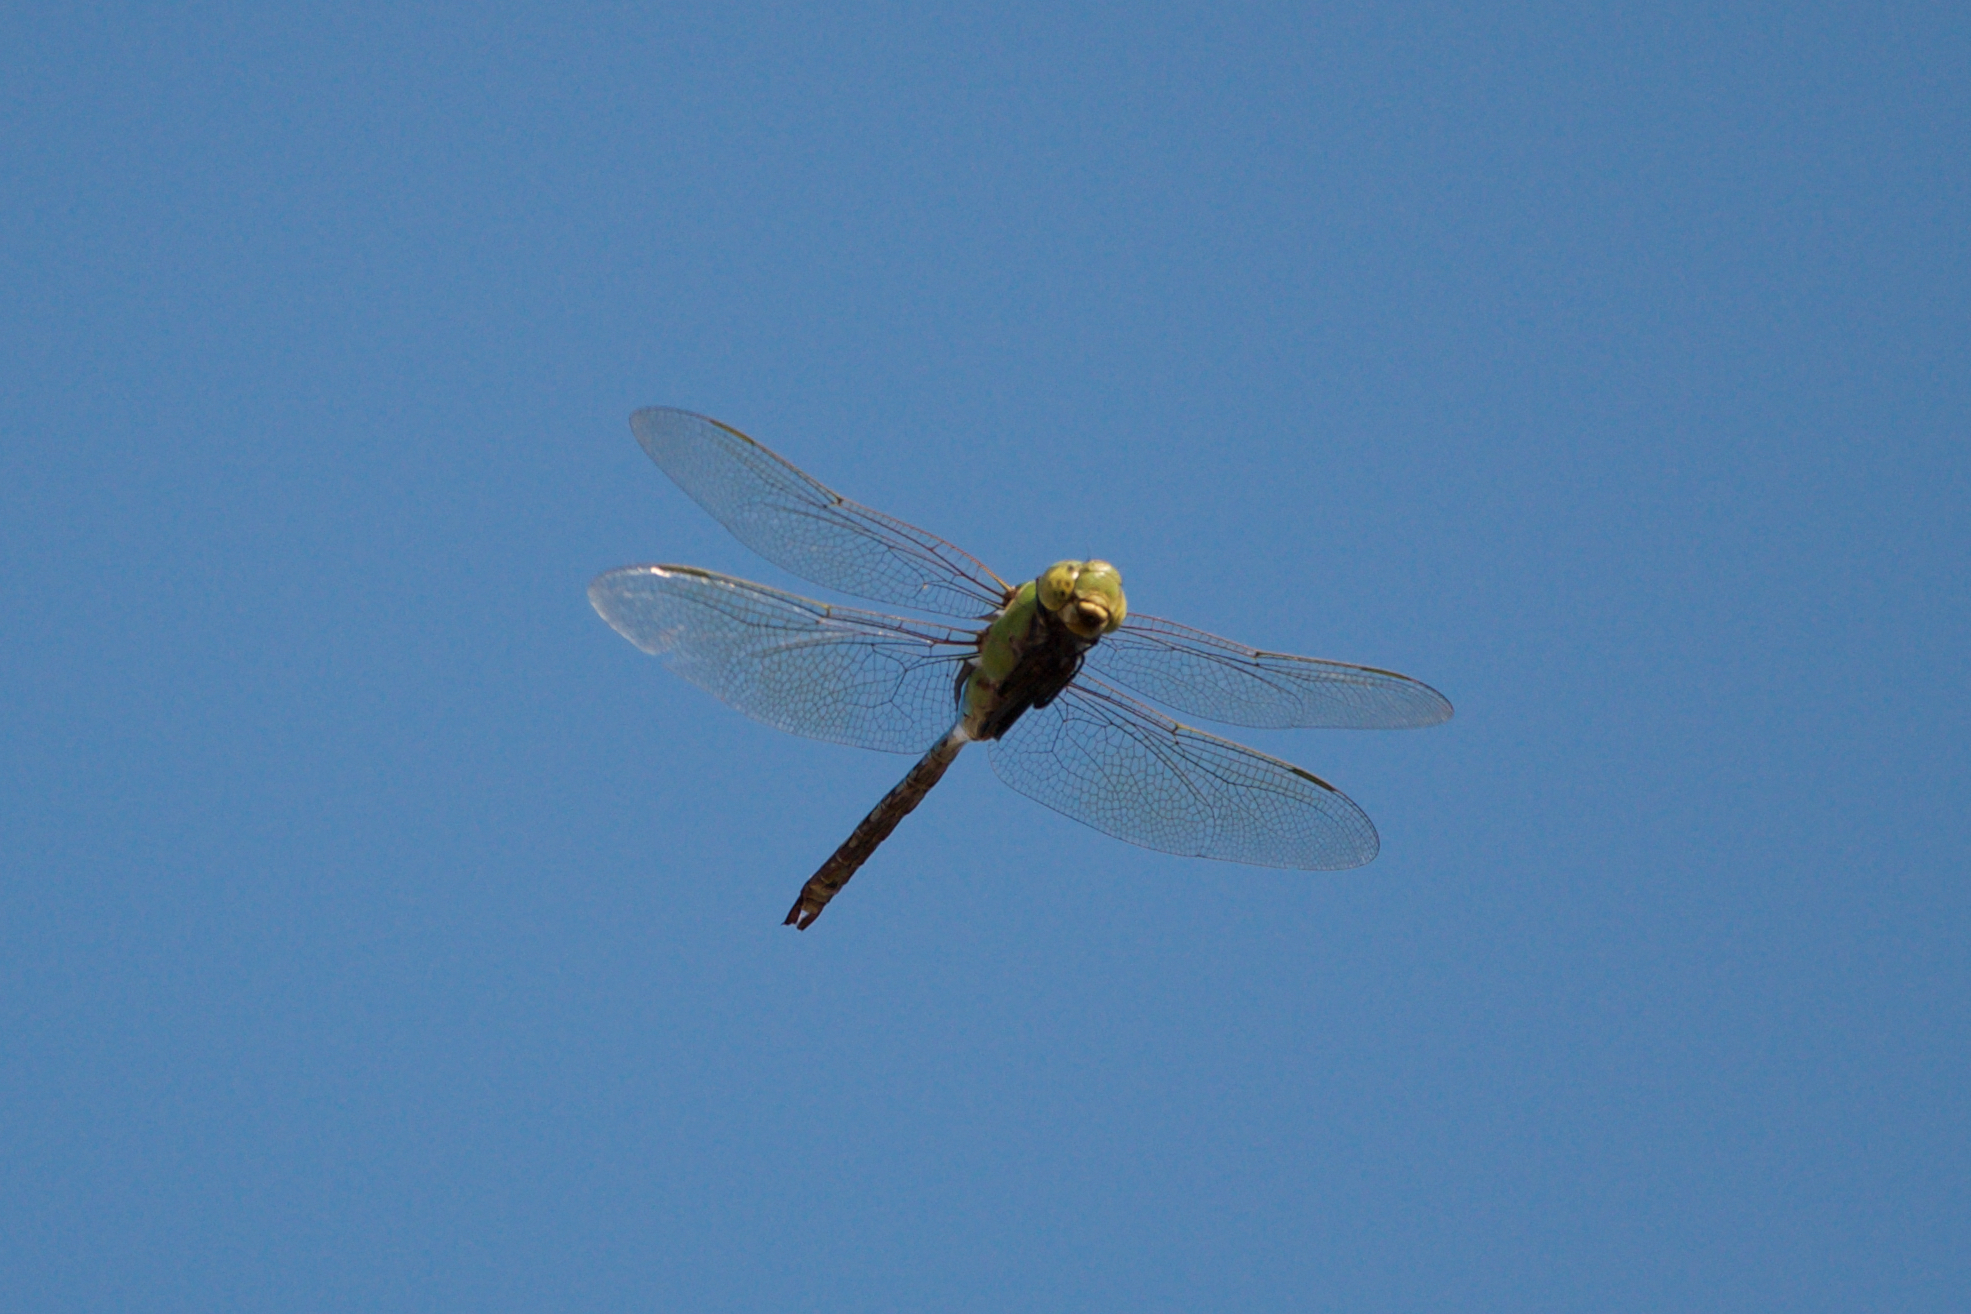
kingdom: Animalia
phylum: Arthropoda
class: Insecta
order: Odonata
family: Aeshnidae
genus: Anax
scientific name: Anax junius
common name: Common green darner
